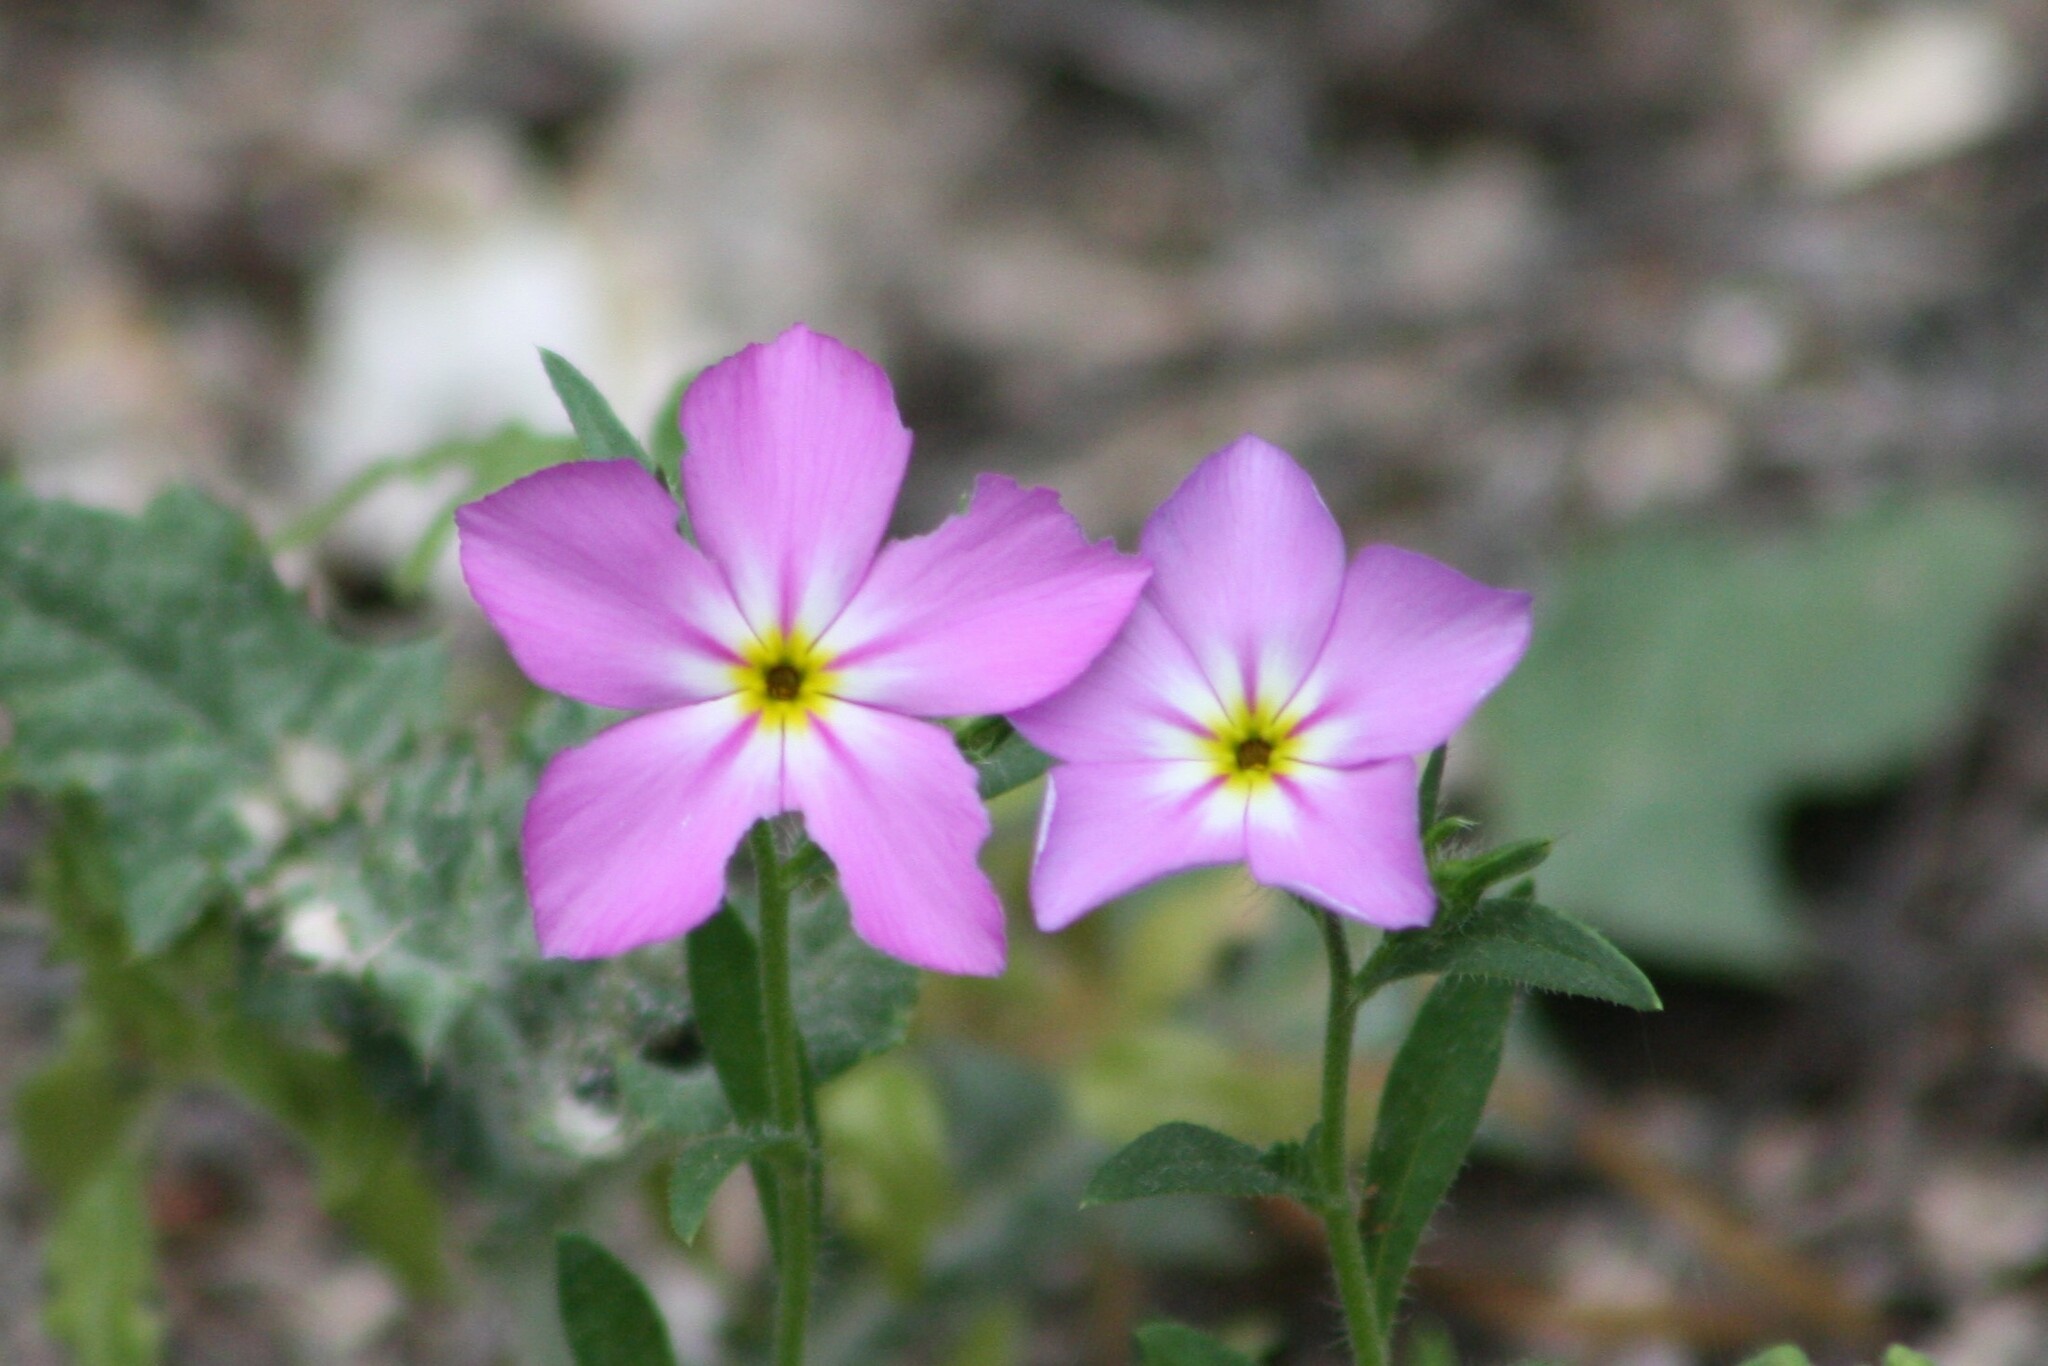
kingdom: Plantae
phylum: Tracheophyta
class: Magnoliopsida
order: Ericales
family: Polemoniaceae
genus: Phlox
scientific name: Phlox roemeriana
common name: Roemer's phlox
